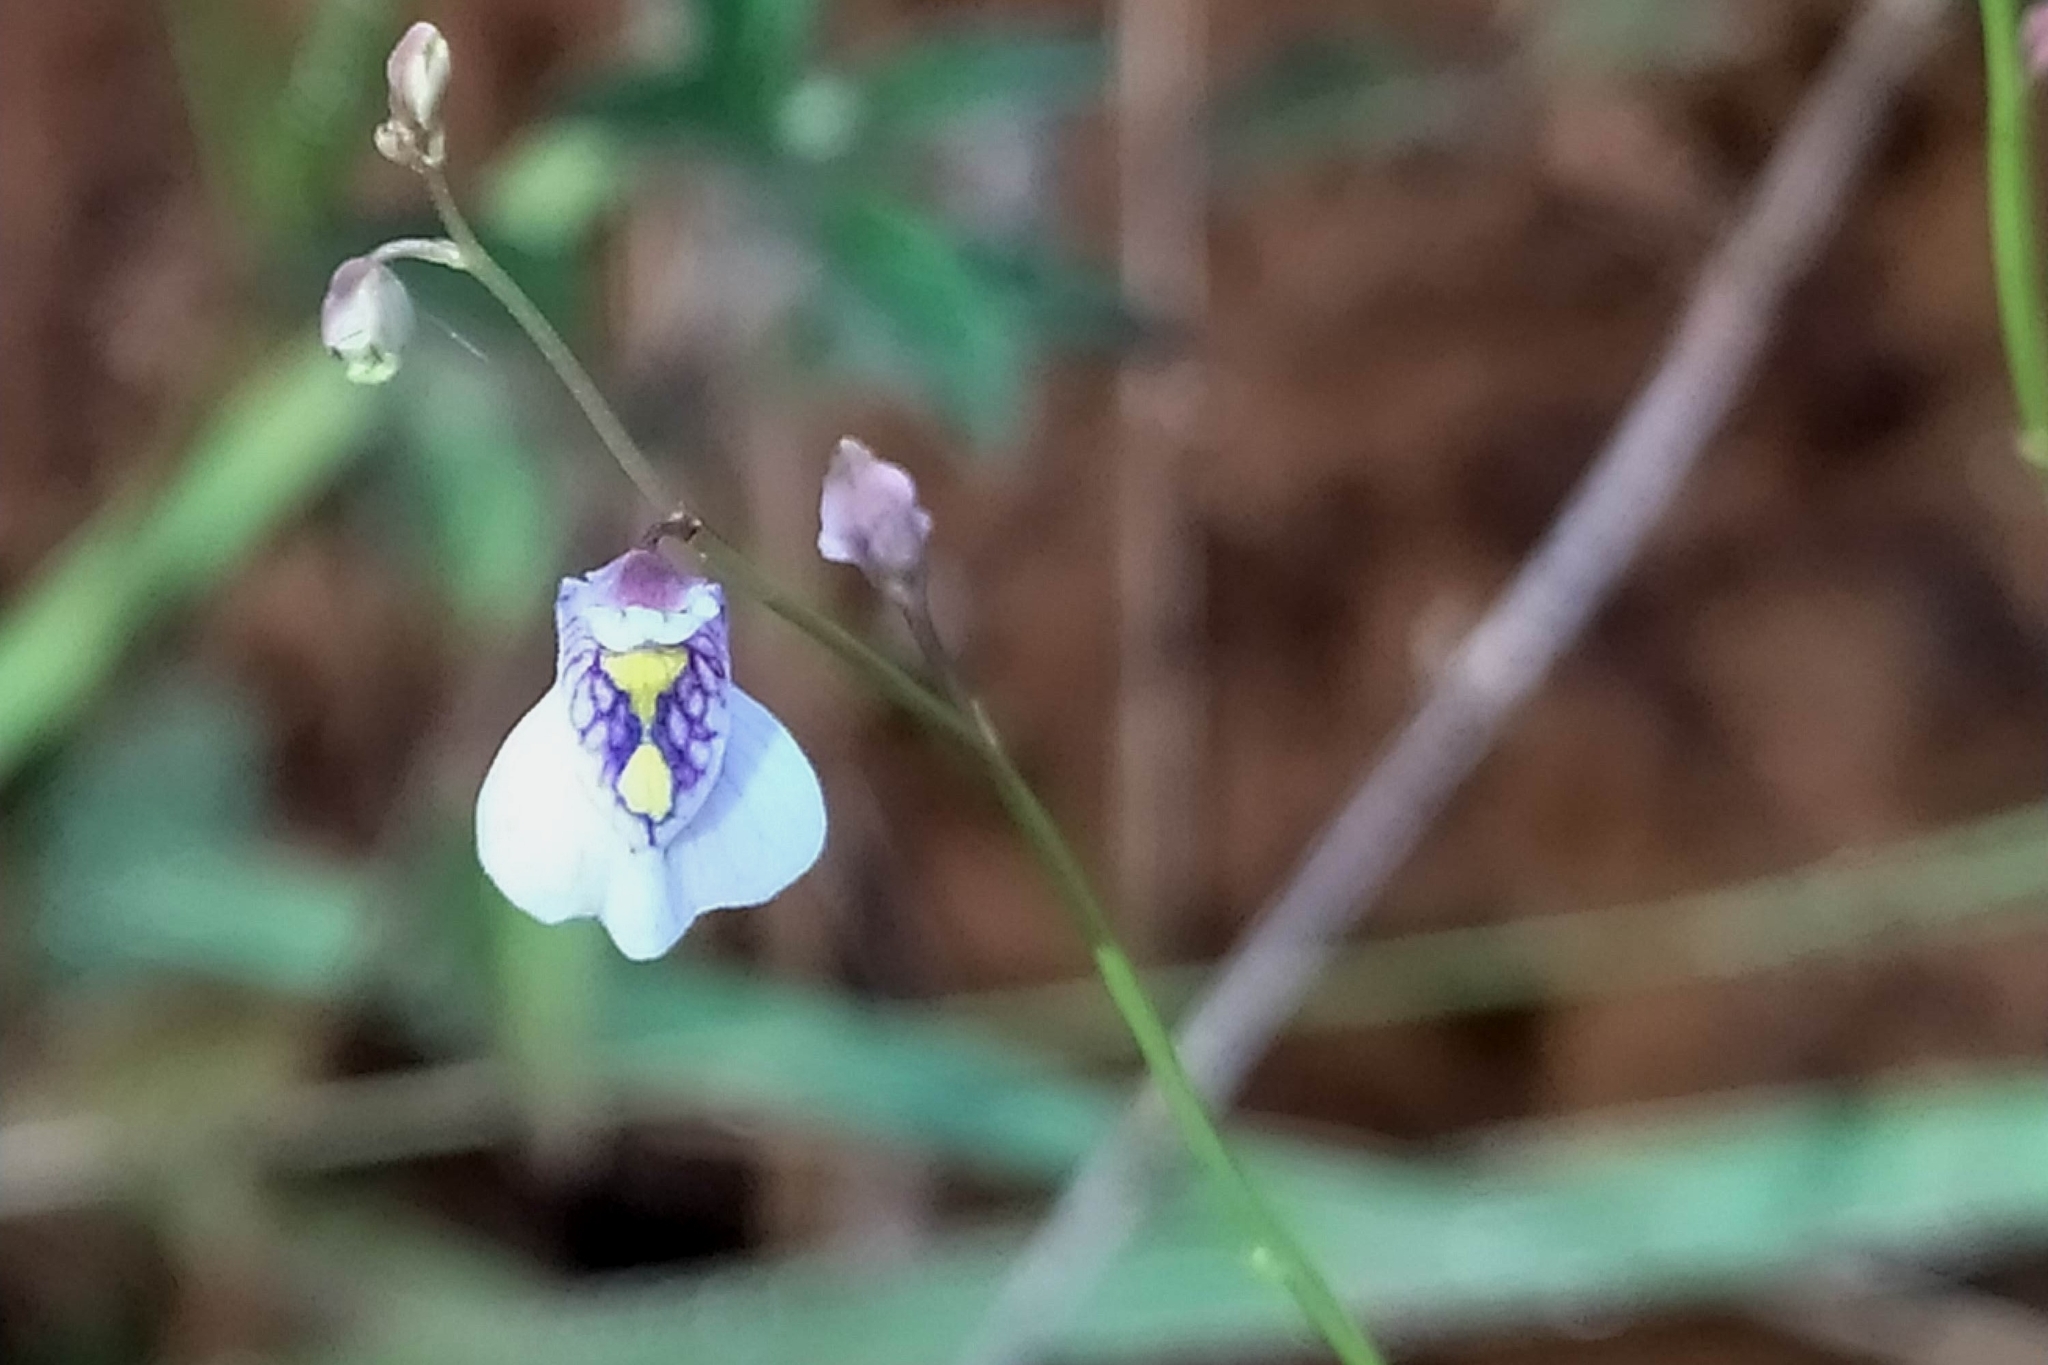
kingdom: Plantae
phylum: Tracheophyta
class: Magnoliopsida
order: Lamiales
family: Lentibulariaceae
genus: Utricularia
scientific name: Utricularia hispida
